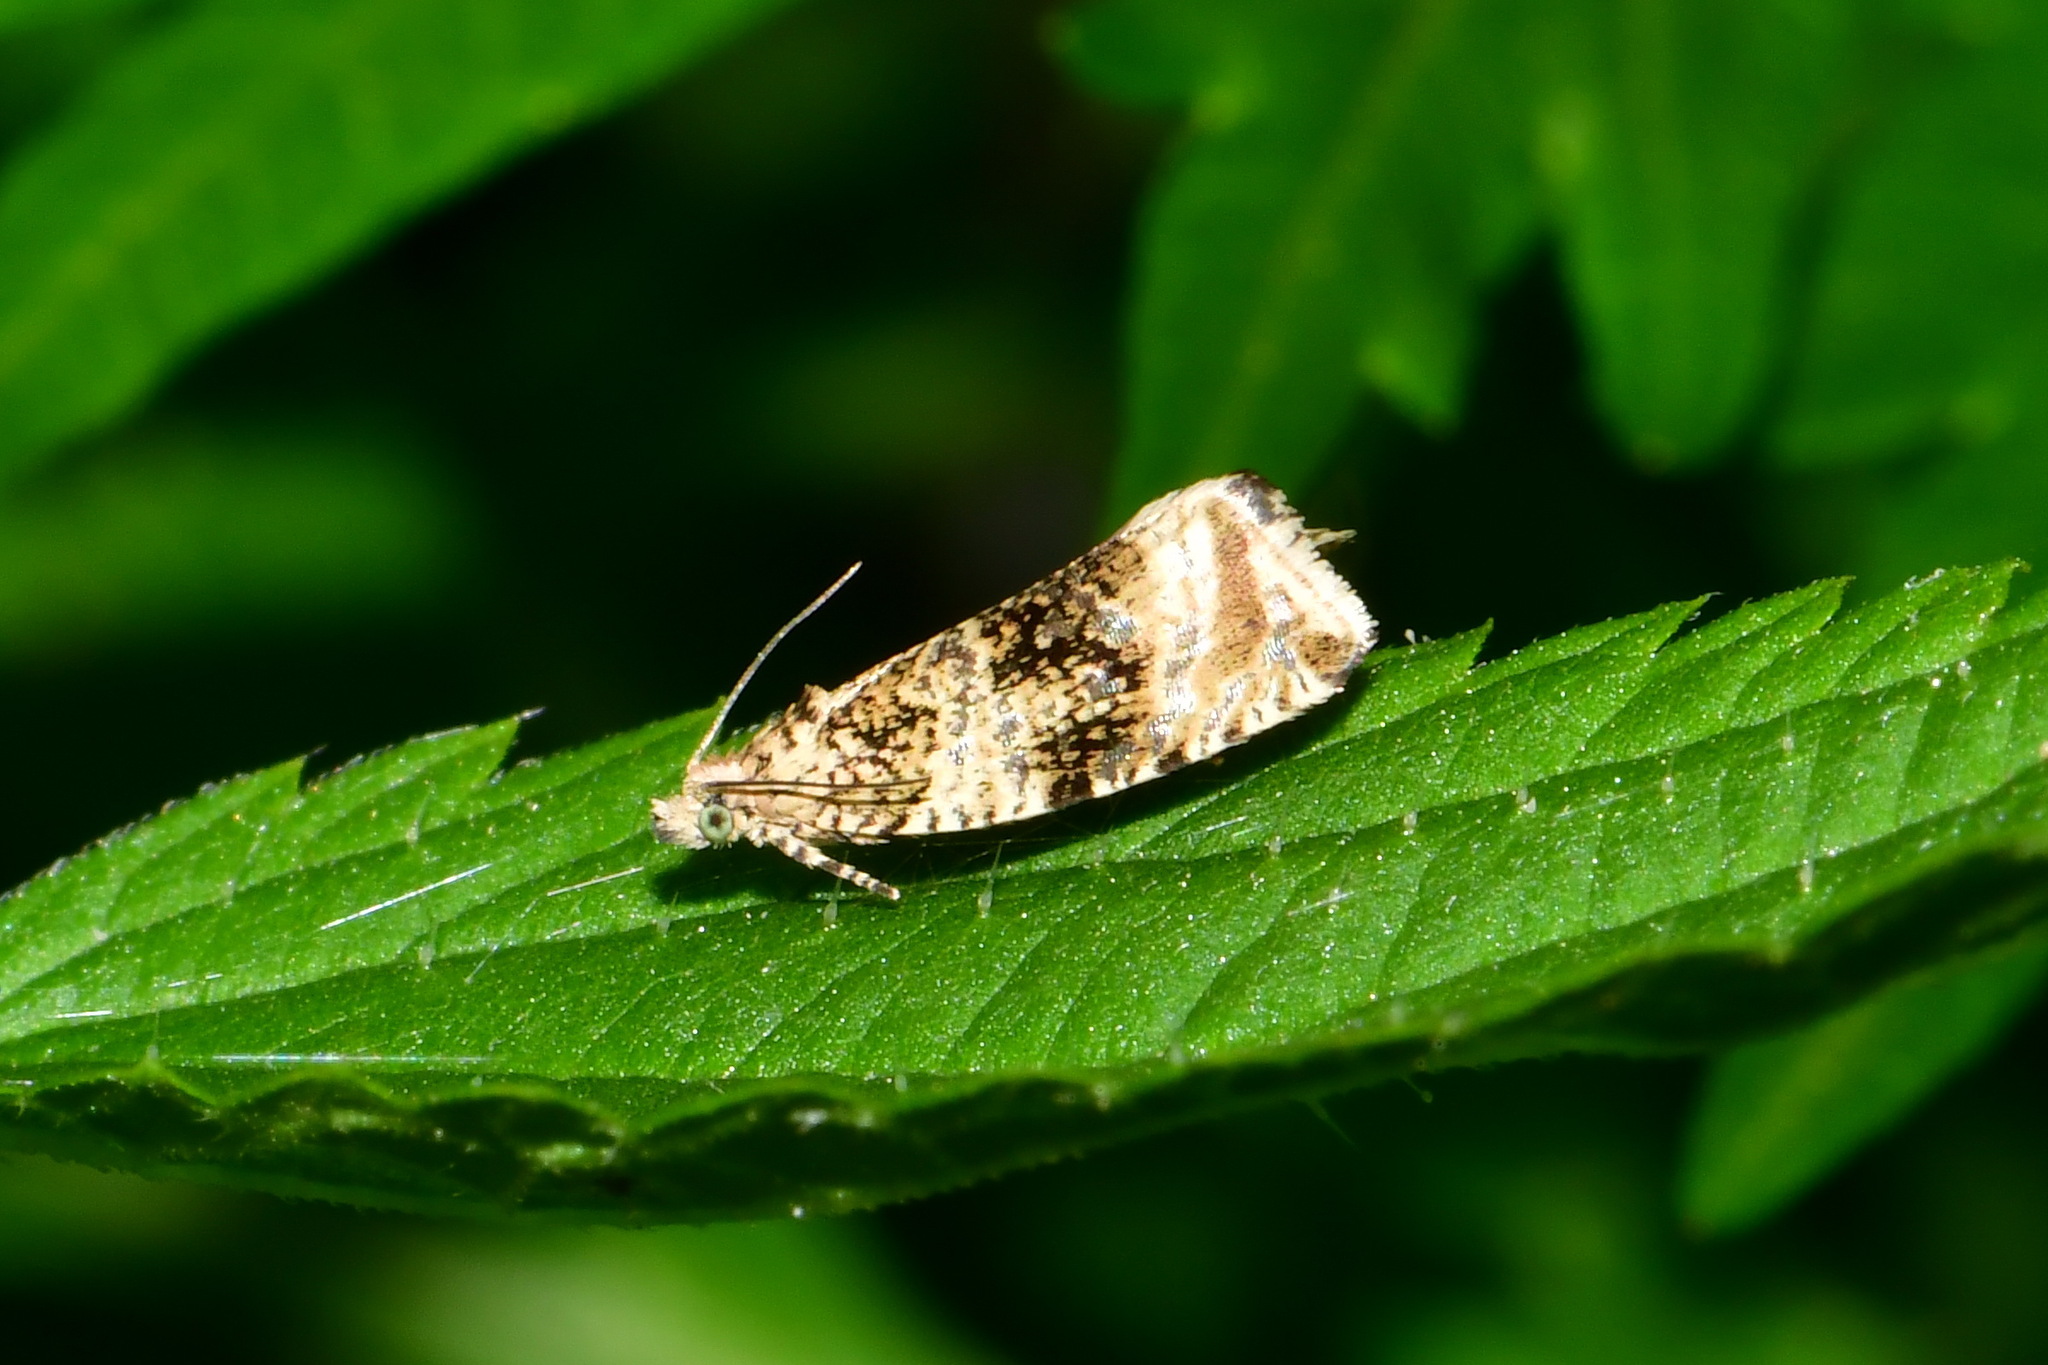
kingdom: Animalia
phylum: Arthropoda
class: Insecta
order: Lepidoptera
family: Tortricidae
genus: Syricoris
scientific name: Syricoris lacunana
